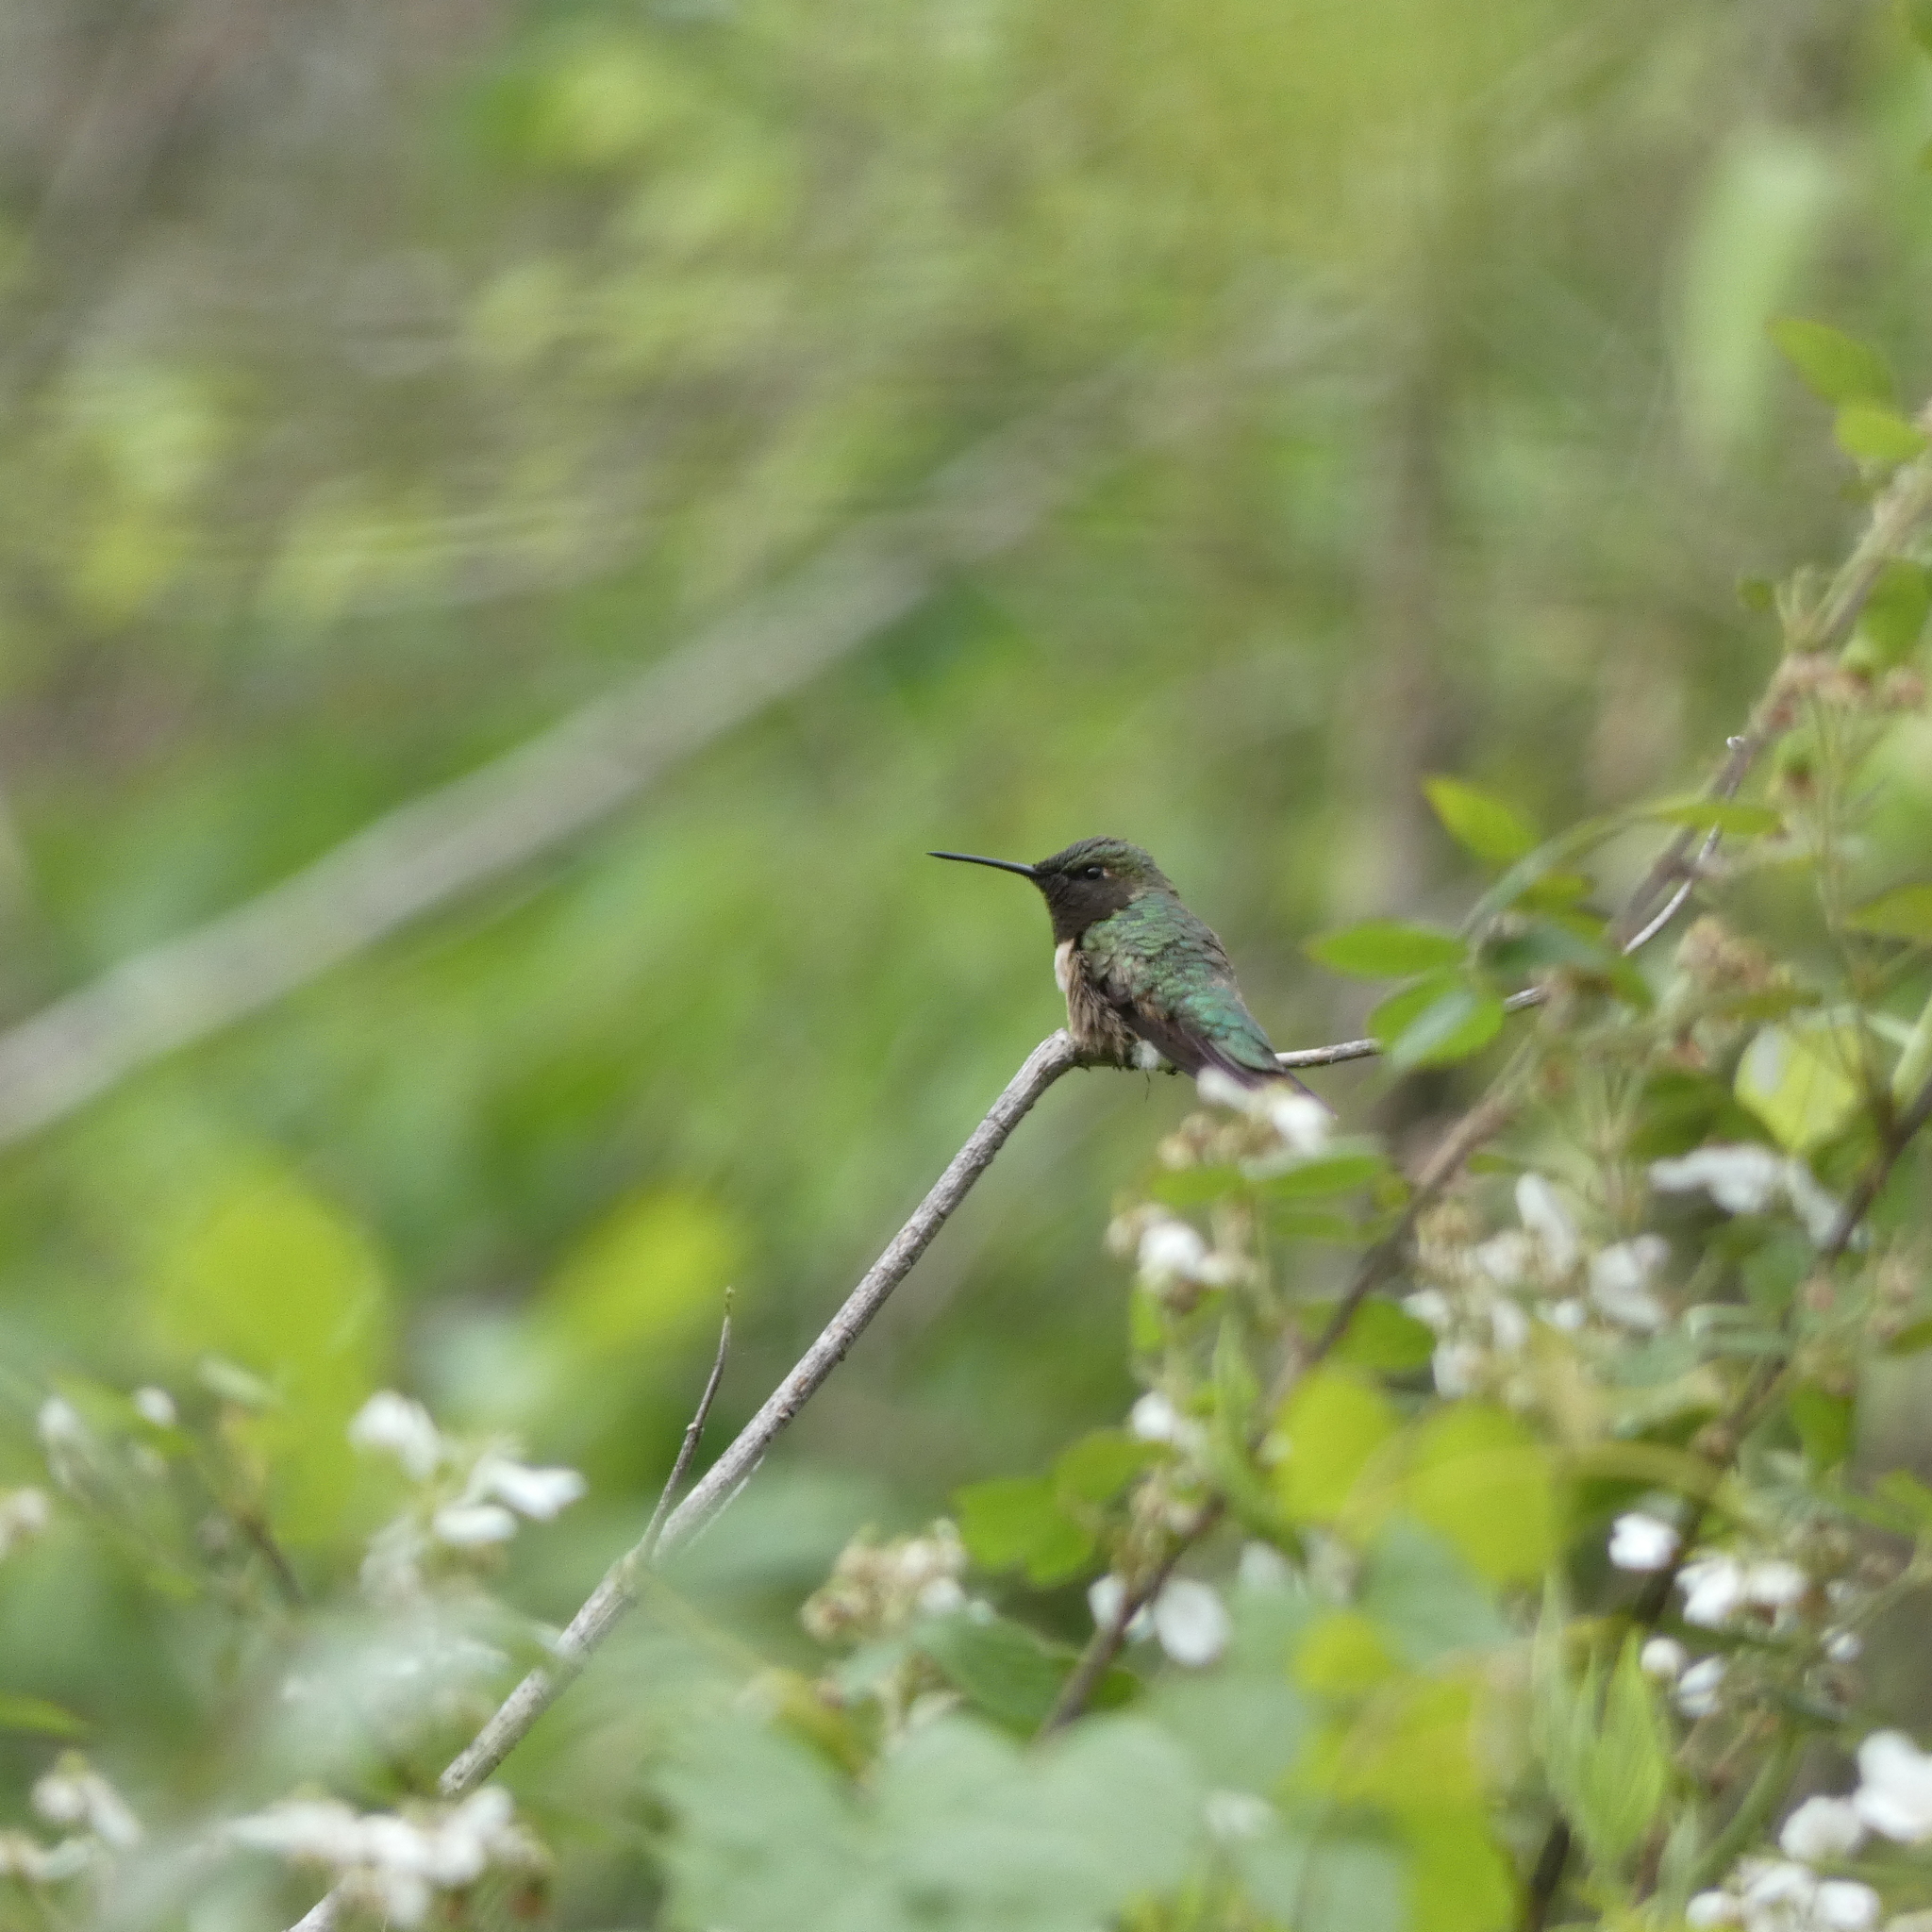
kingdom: Animalia
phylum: Chordata
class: Aves
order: Apodiformes
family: Trochilidae
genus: Archilochus
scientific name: Archilochus colubris
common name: Ruby-throated hummingbird
